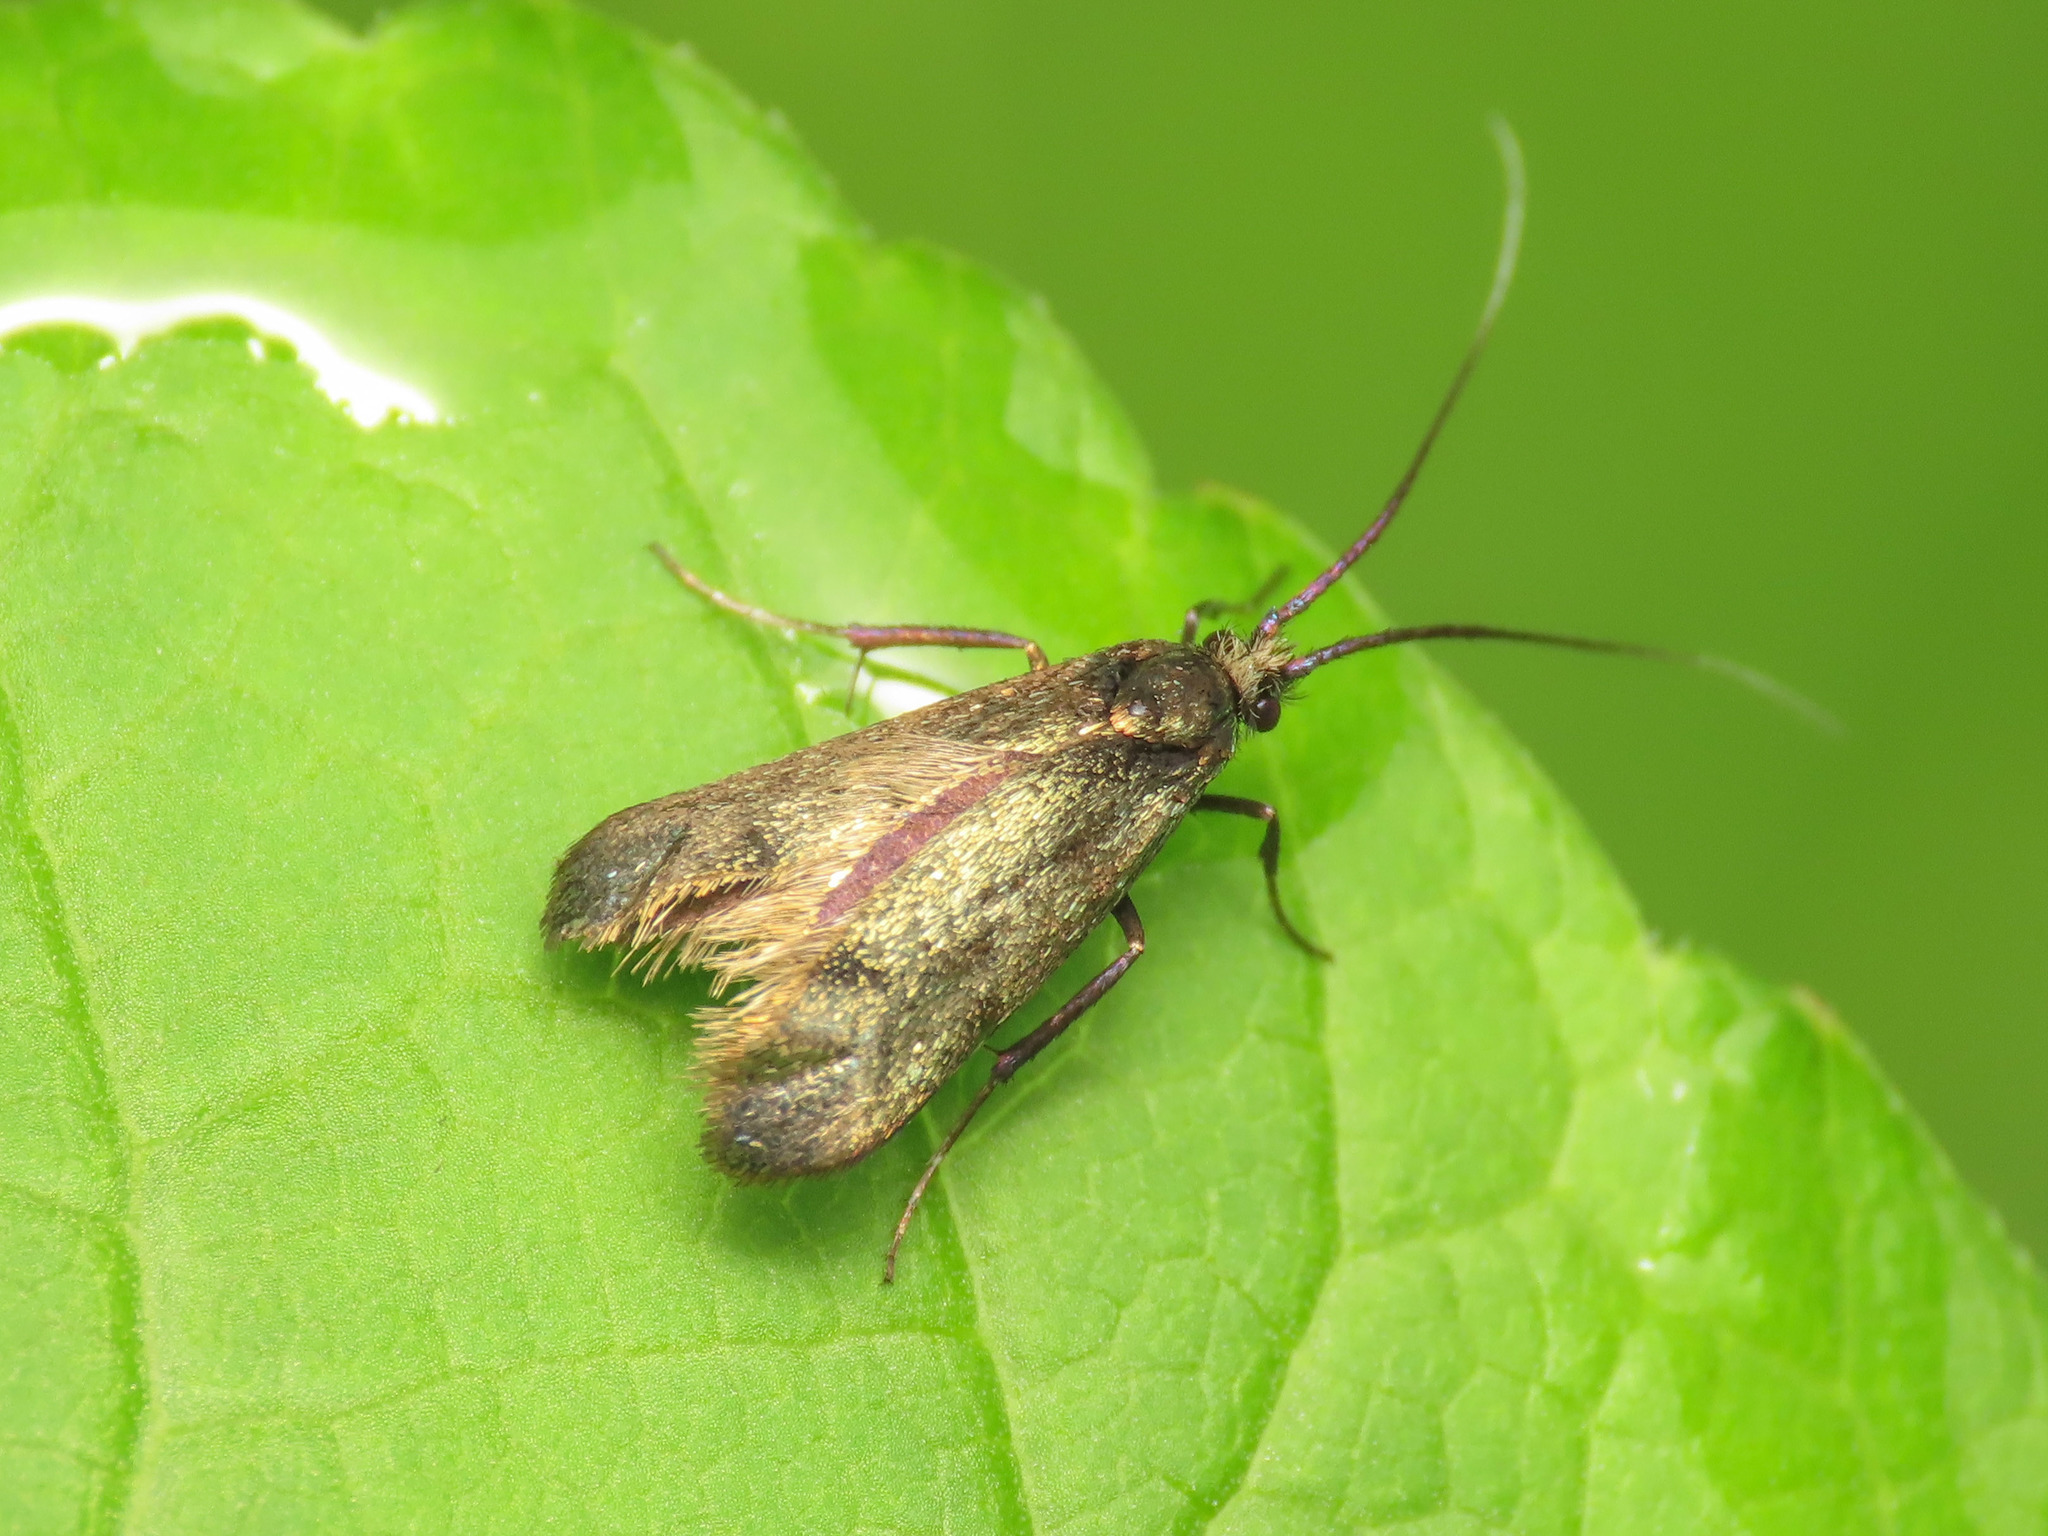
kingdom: Animalia
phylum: Arthropoda
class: Insecta
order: Lepidoptera
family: Adelidae
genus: Adela
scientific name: Adela viridella
